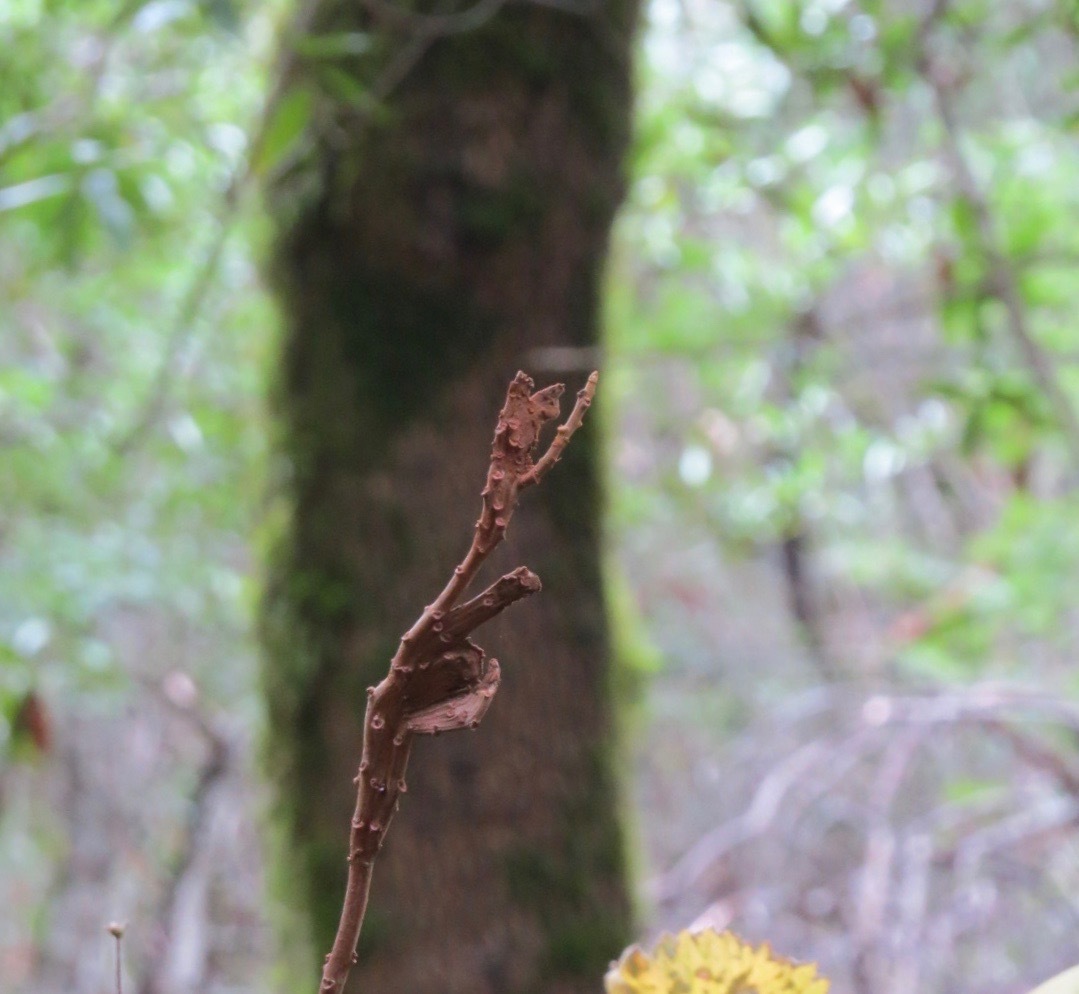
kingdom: Plantae
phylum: Tracheophyta
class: Magnoliopsida
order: Sapindales
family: Anacardiaceae
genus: Toxicodendron
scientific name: Toxicodendron diversilobum
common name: Pacific poison-oak
